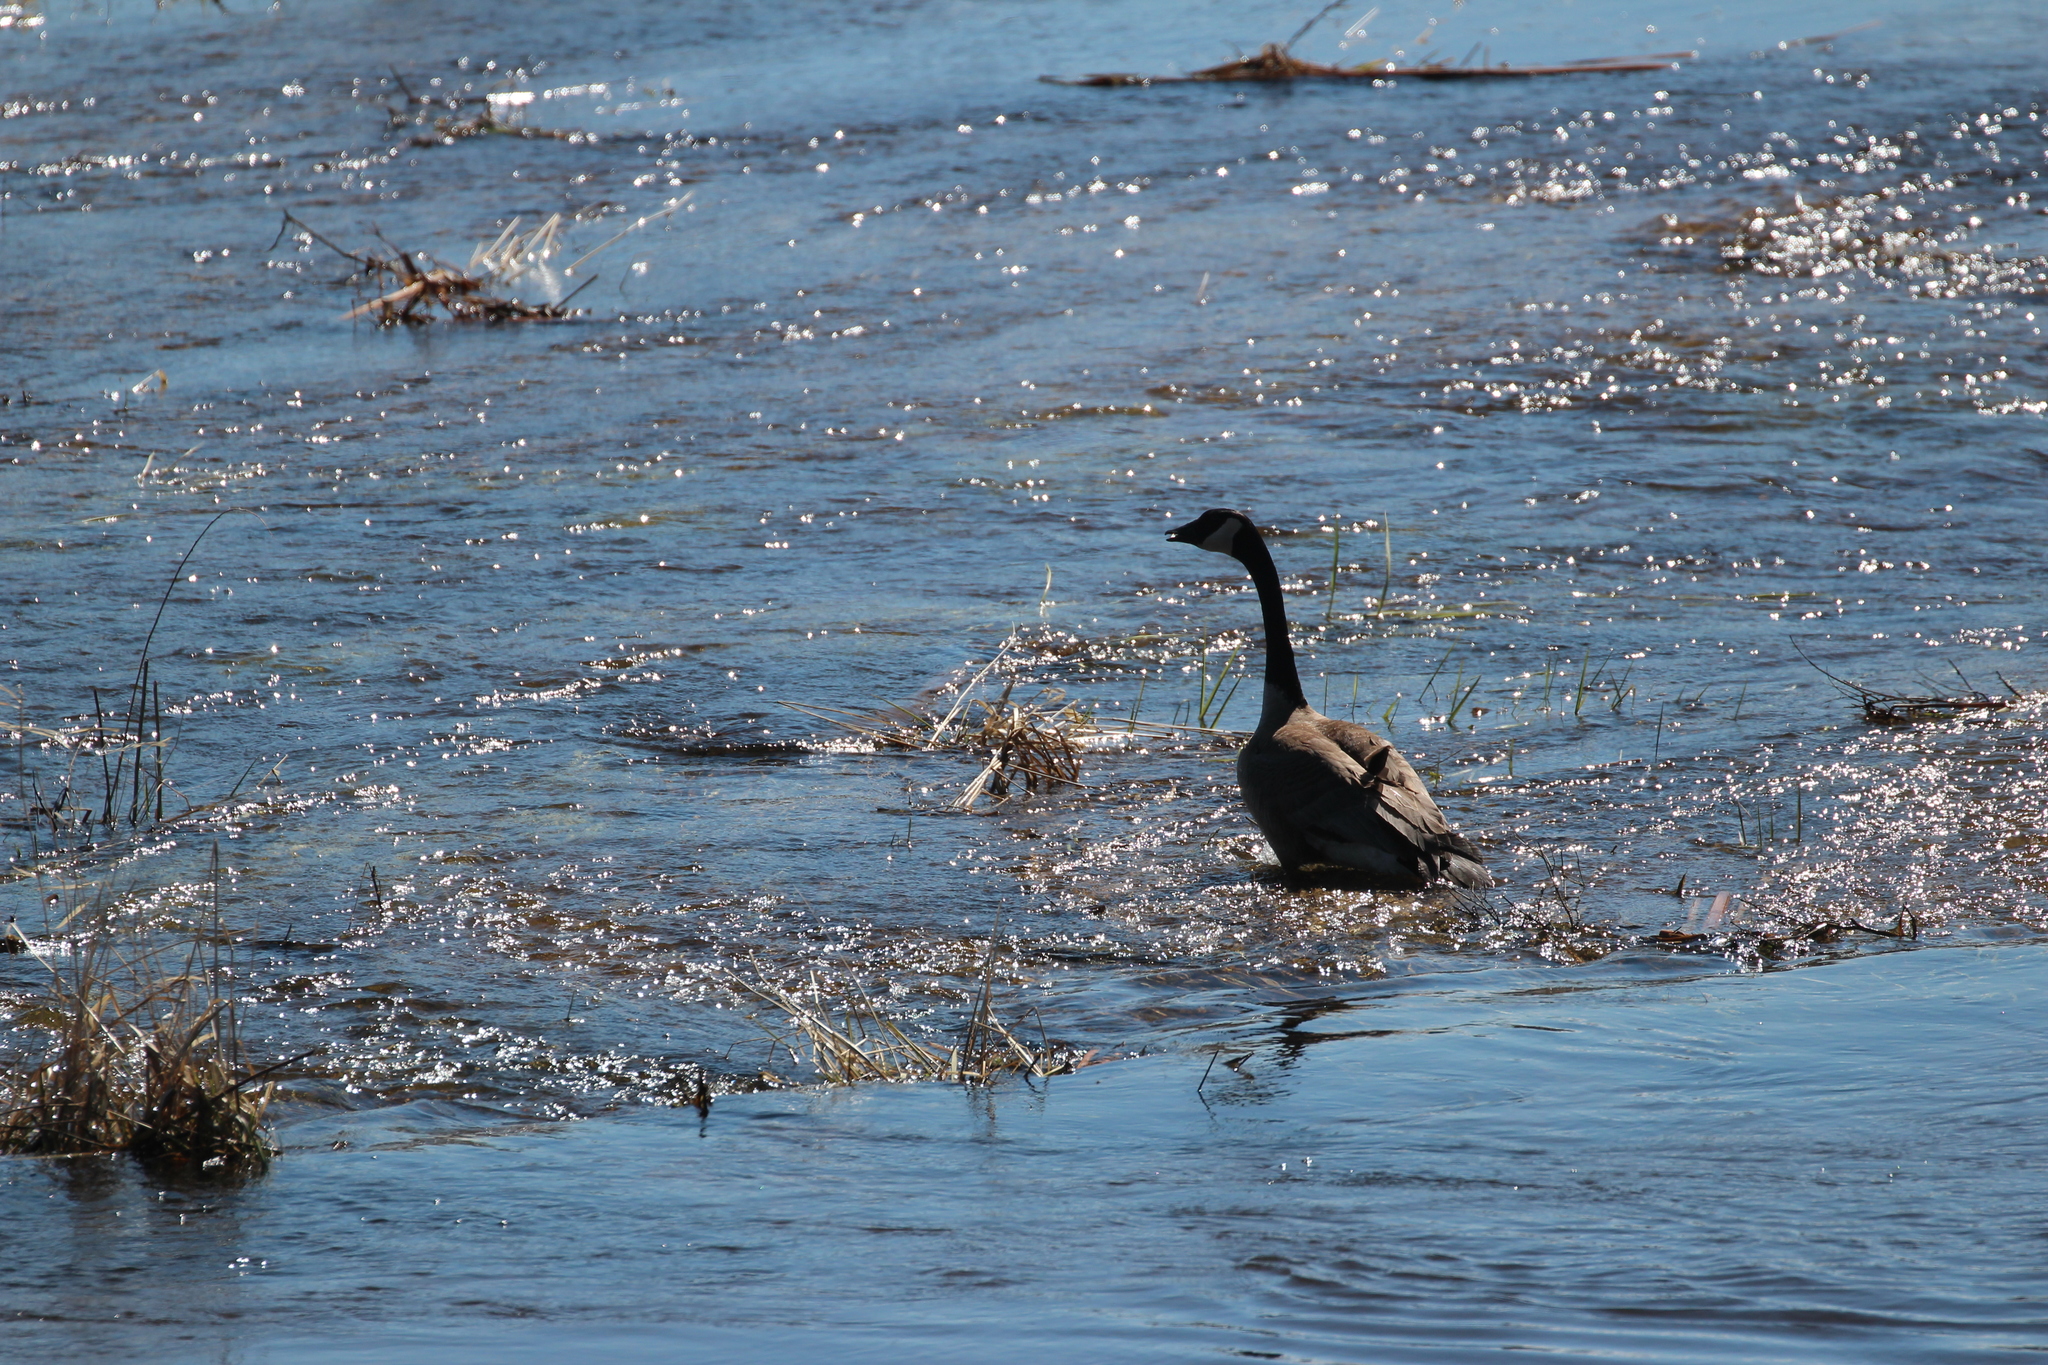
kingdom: Animalia
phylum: Chordata
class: Aves
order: Anseriformes
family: Anatidae
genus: Branta
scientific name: Branta canadensis
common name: Canada goose
